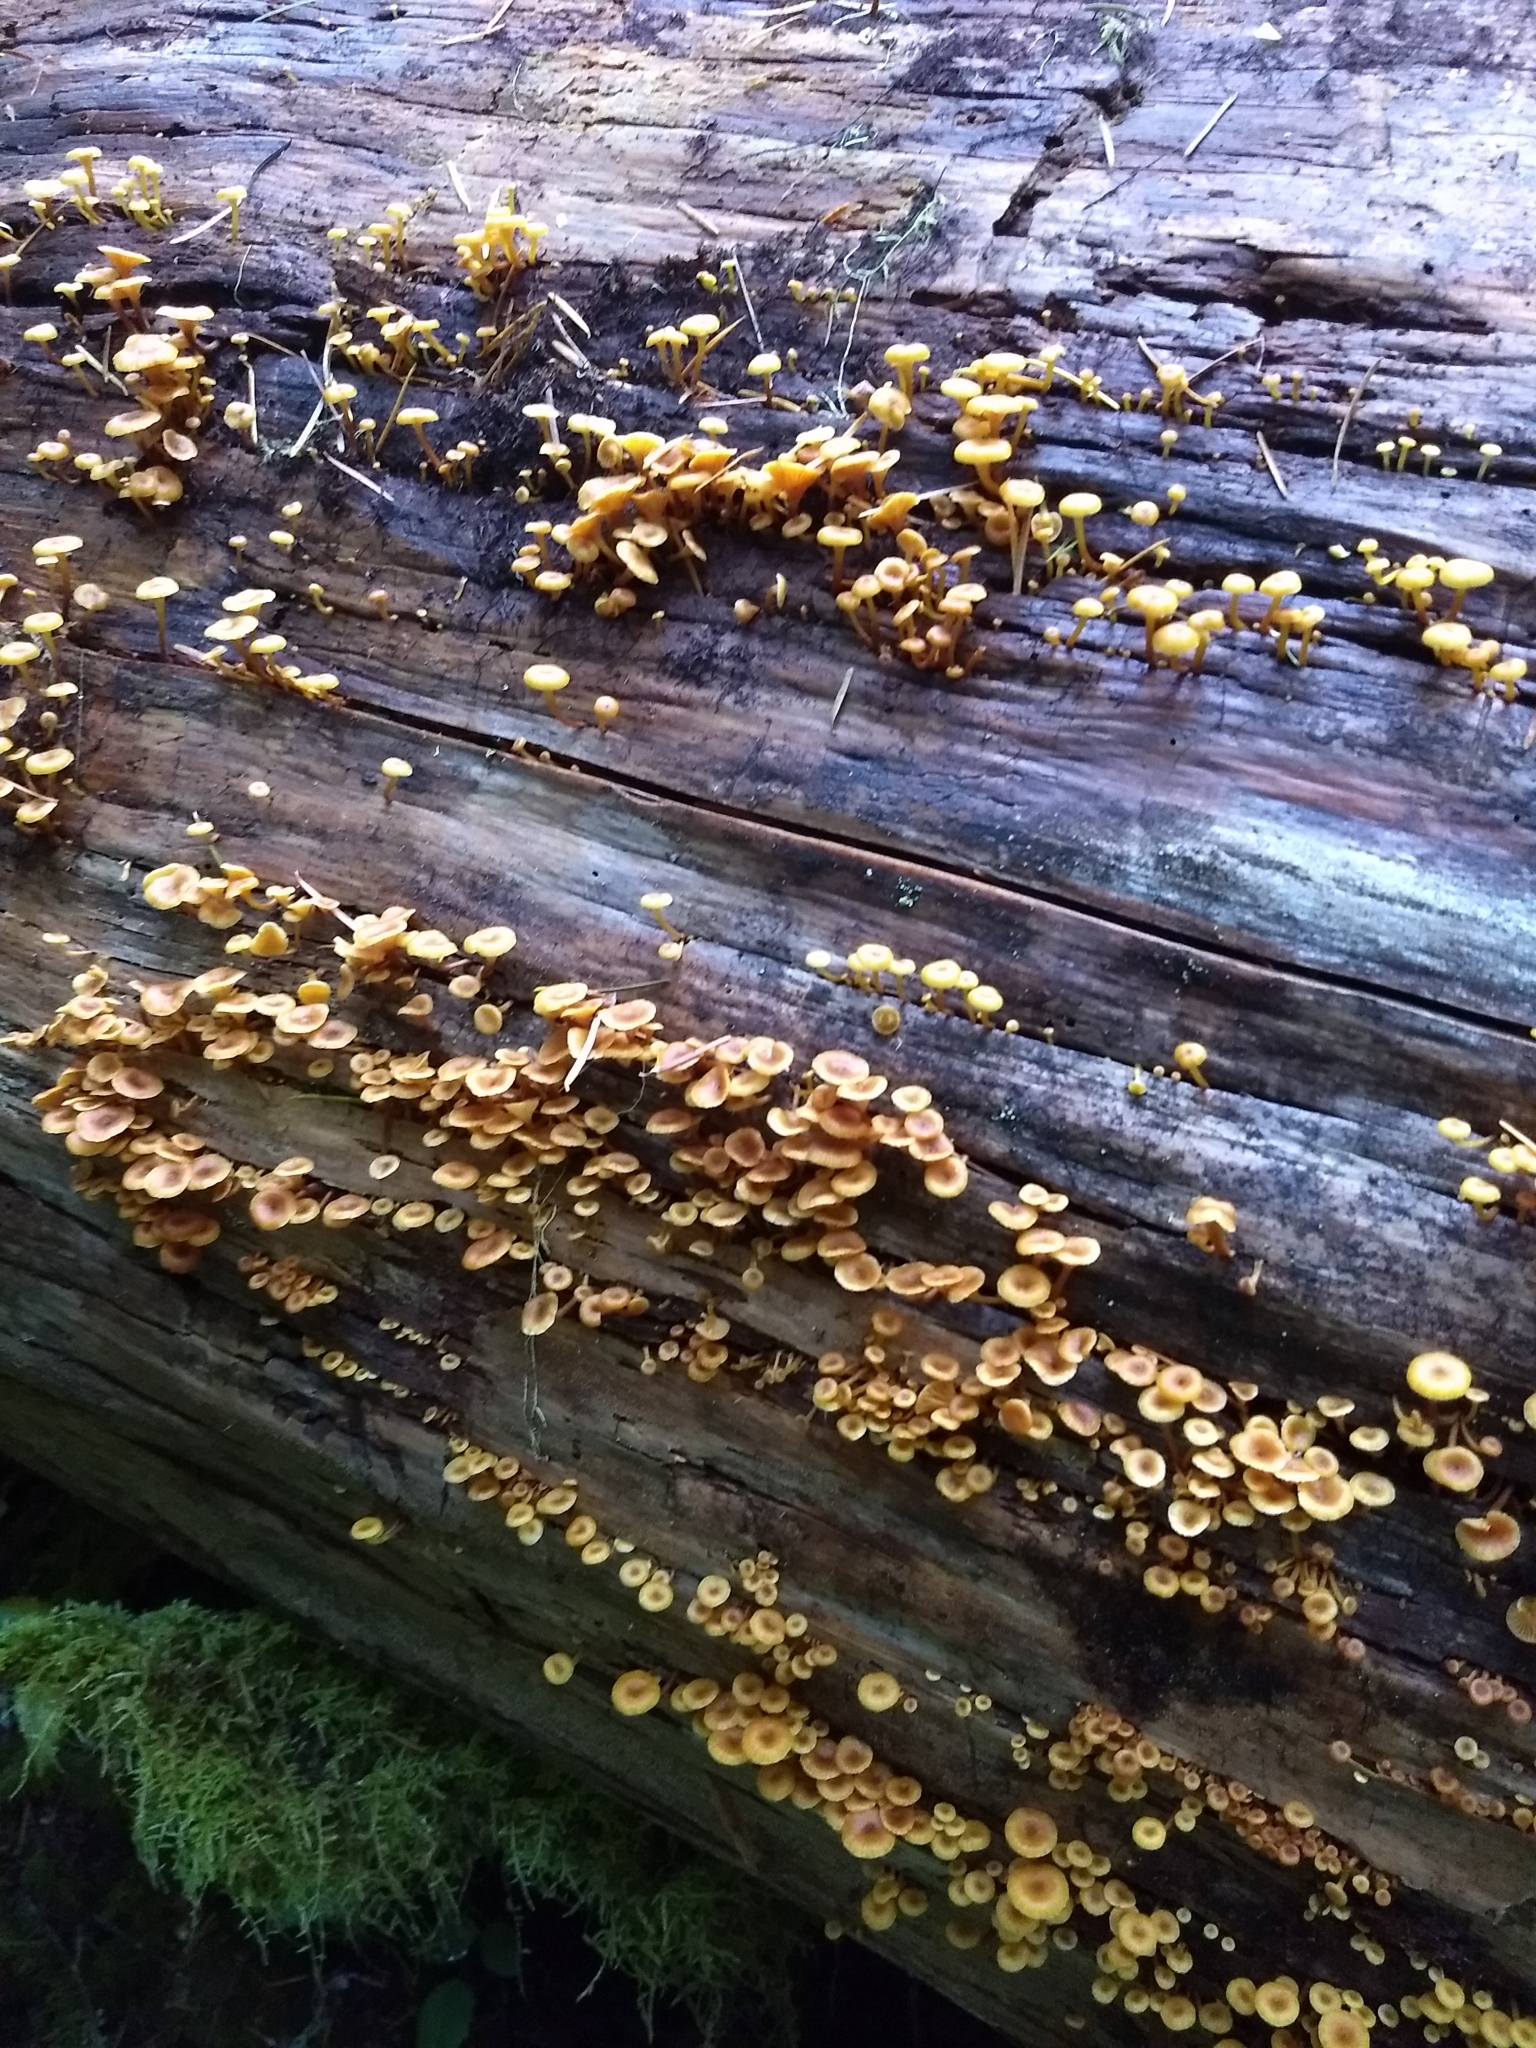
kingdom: Fungi
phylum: Basidiomycota
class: Agaricomycetes
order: Agaricales
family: Mycenaceae
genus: Xeromphalina
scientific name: Xeromphalina campanella
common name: Pinewood gingertail
